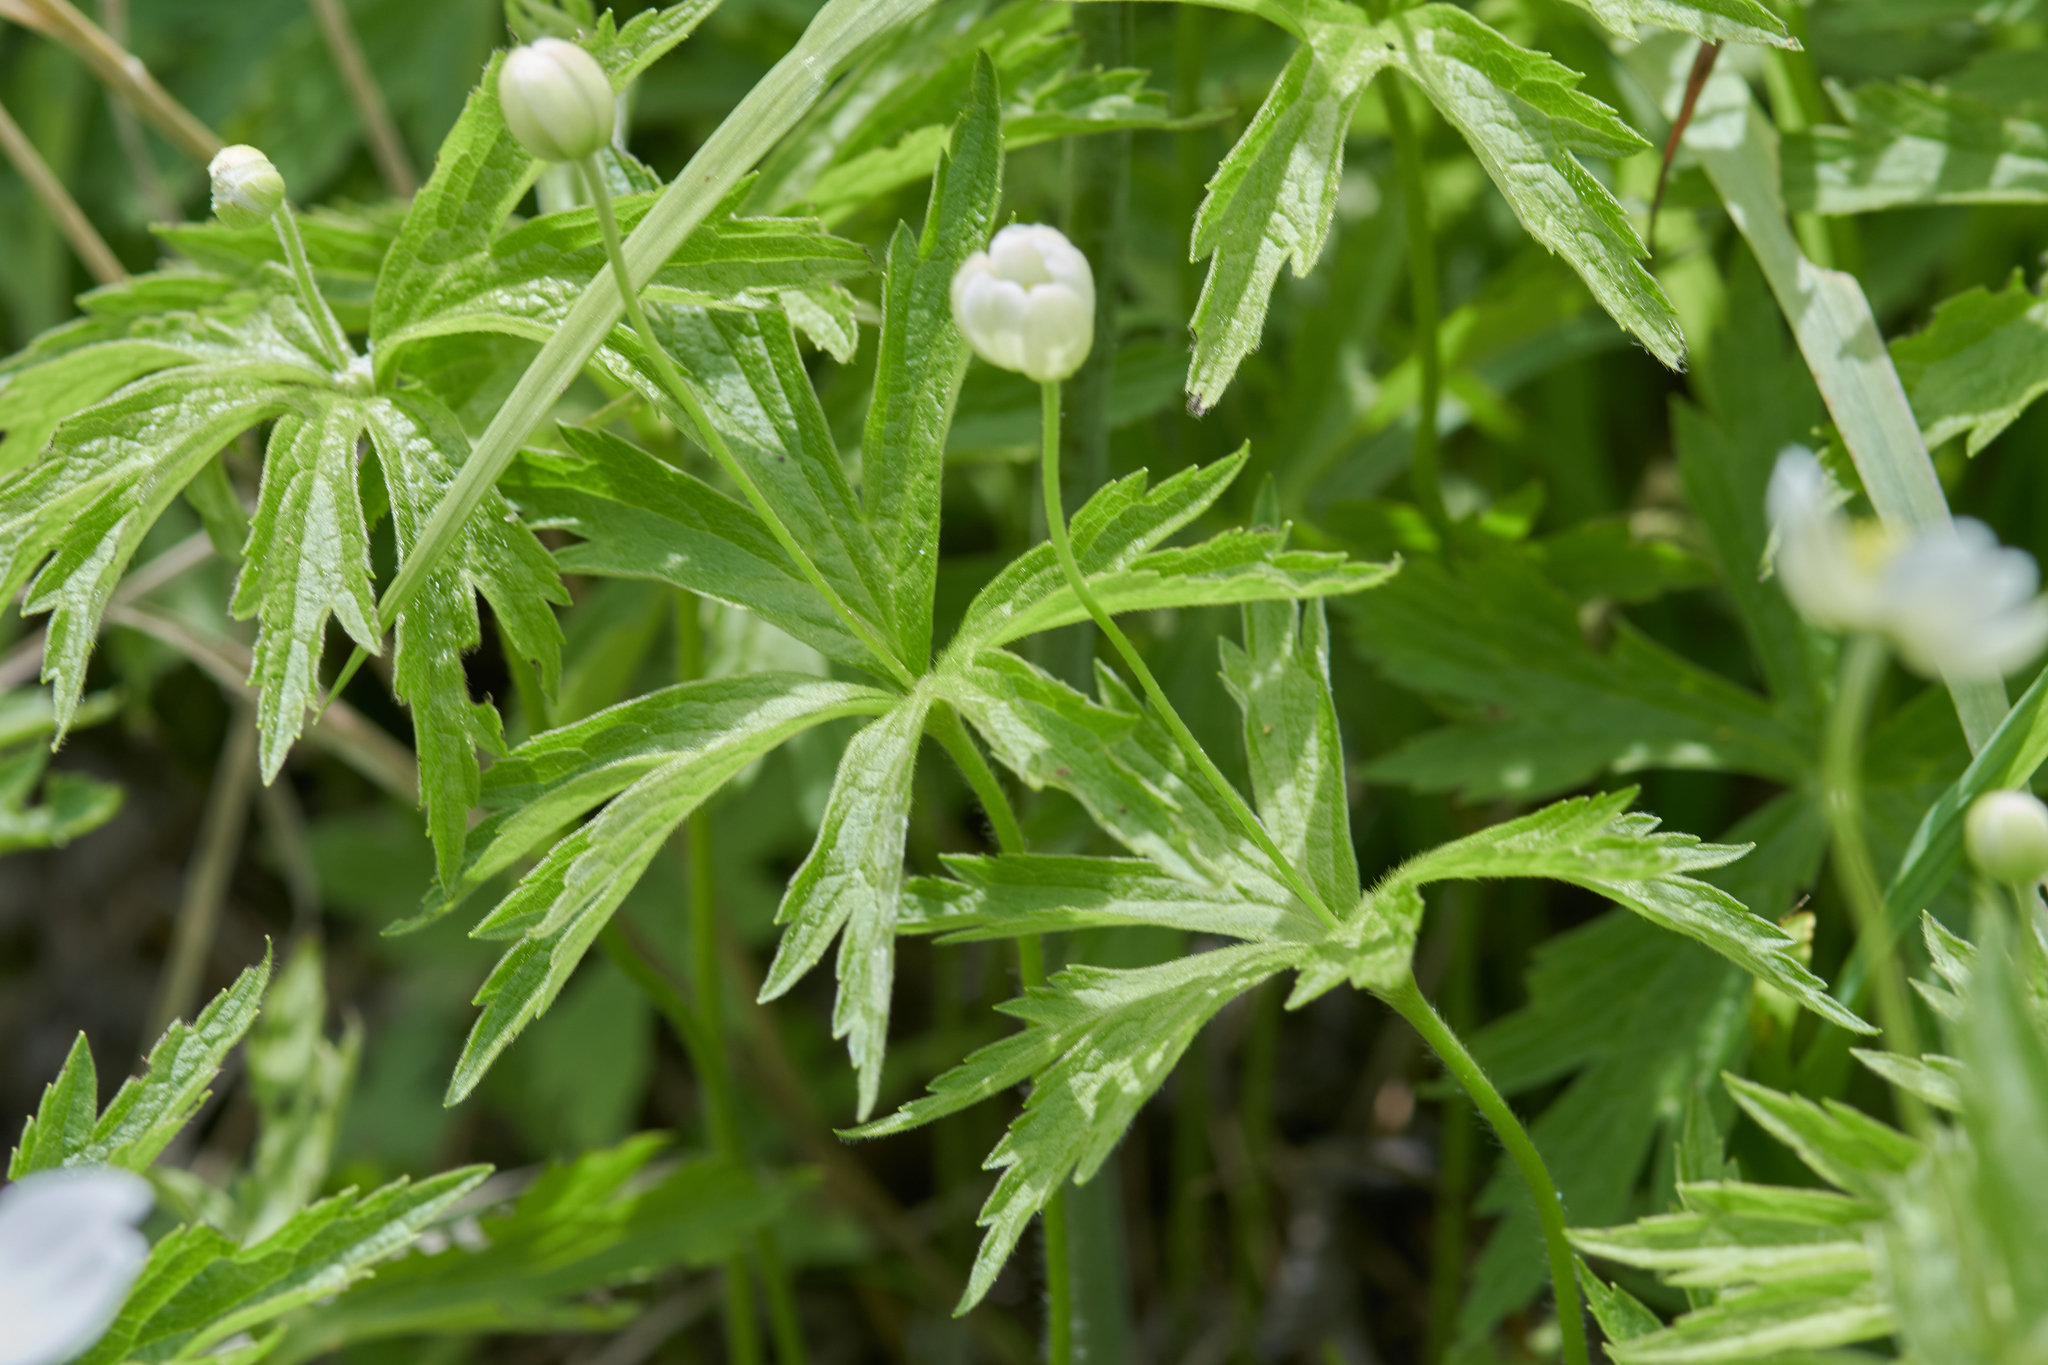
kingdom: Plantae
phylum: Tracheophyta
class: Magnoliopsida
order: Ranunculales
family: Ranunculaceae
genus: Anemonastrum
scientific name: Anemonastrum canadense
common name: Canada anemone
